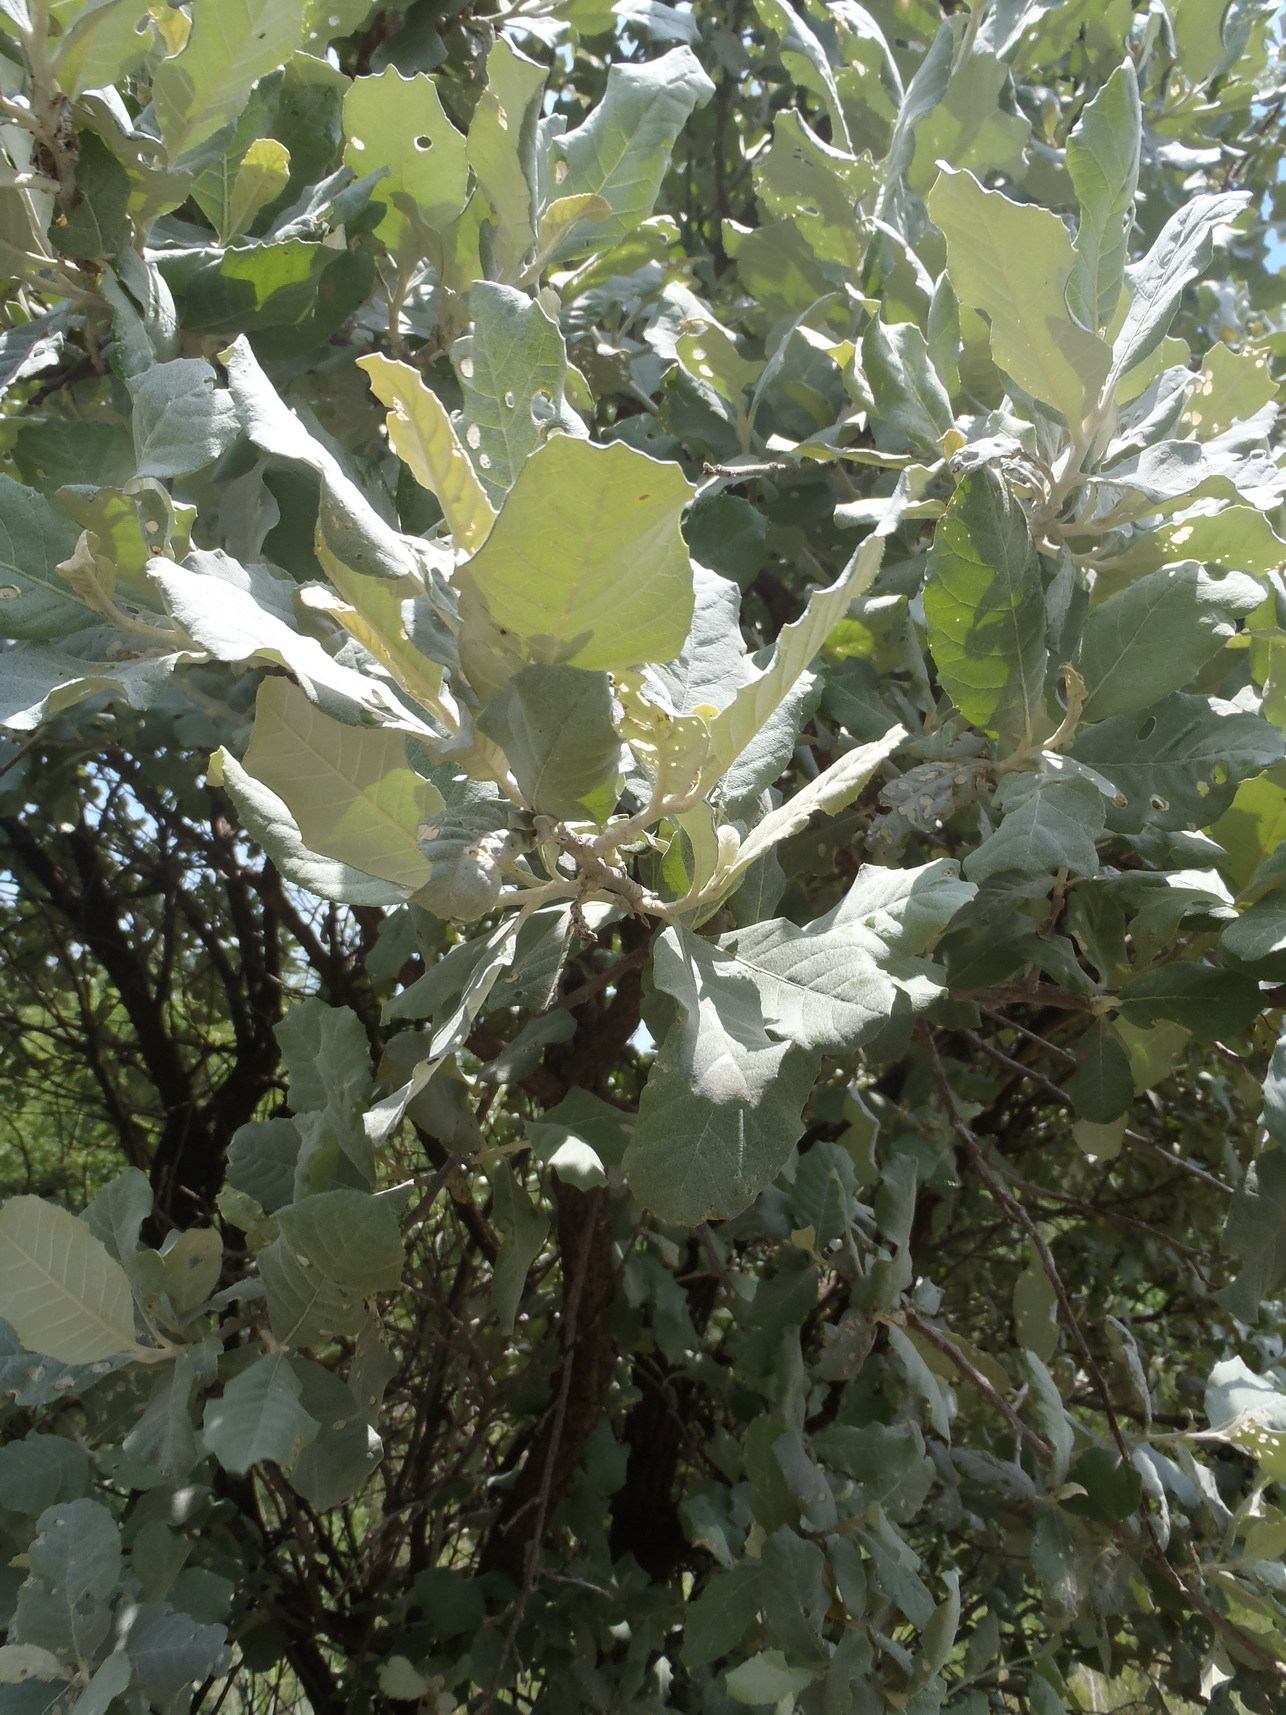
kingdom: Plantae
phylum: Tracheophyta
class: Magnoliopsida
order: Asterales
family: Asteraceae
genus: Tarchonanthus
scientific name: Tarchonanthus camphoratus
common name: Camphorwood
